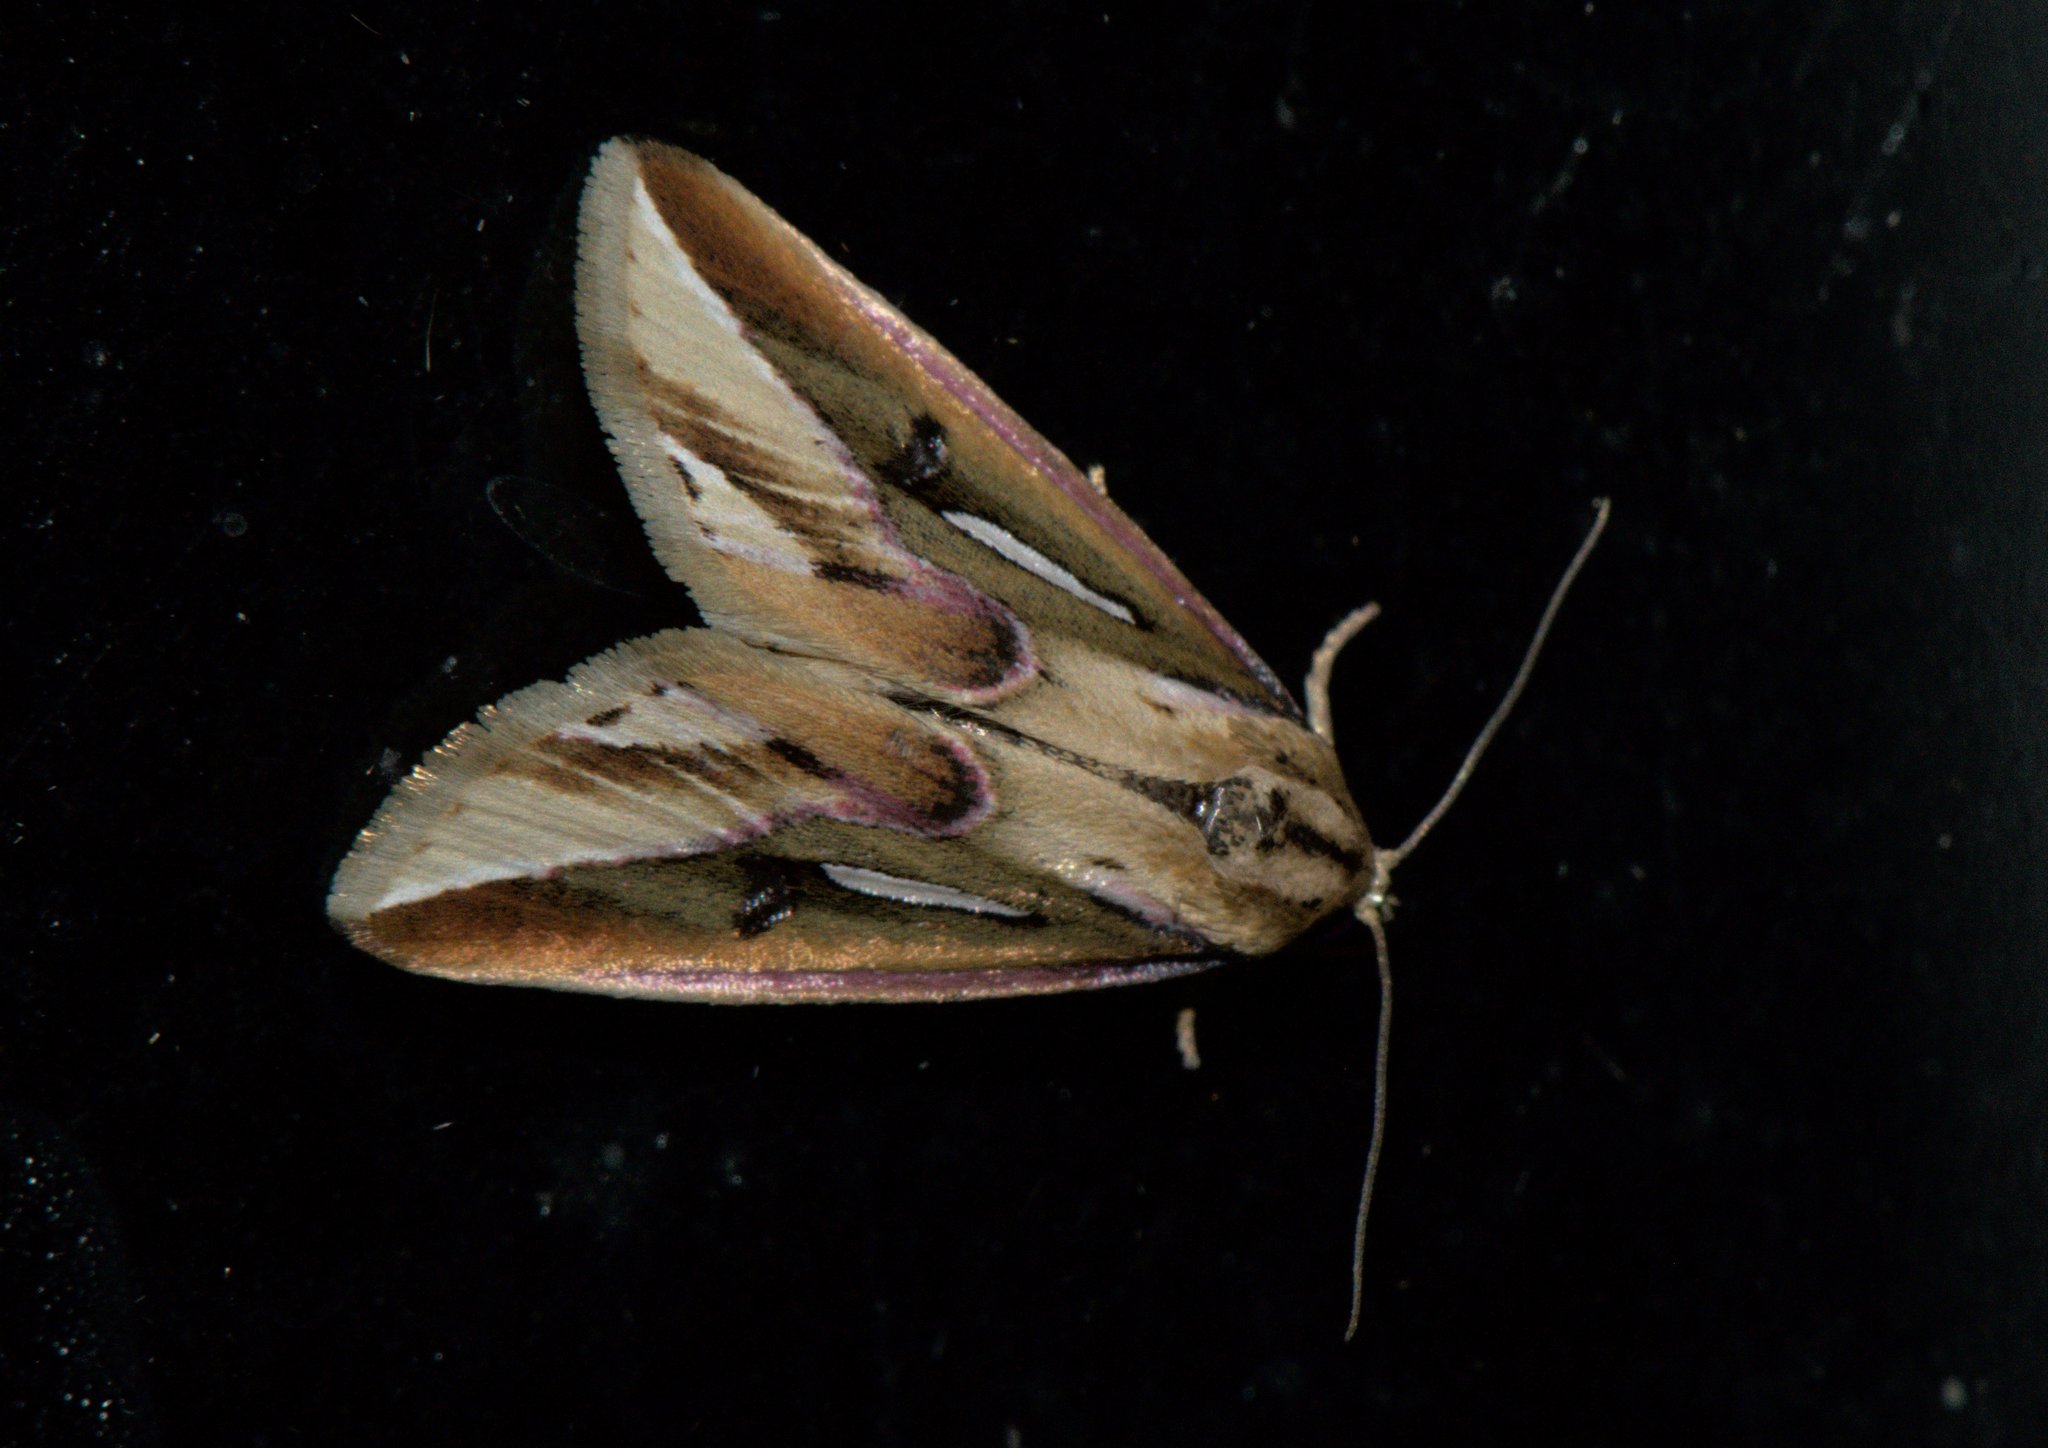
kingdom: Animalia
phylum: Arthropoda
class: Insecta
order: Lepidoptera
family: Noctuidae
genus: Micardia
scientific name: Micardia pulcherrima
